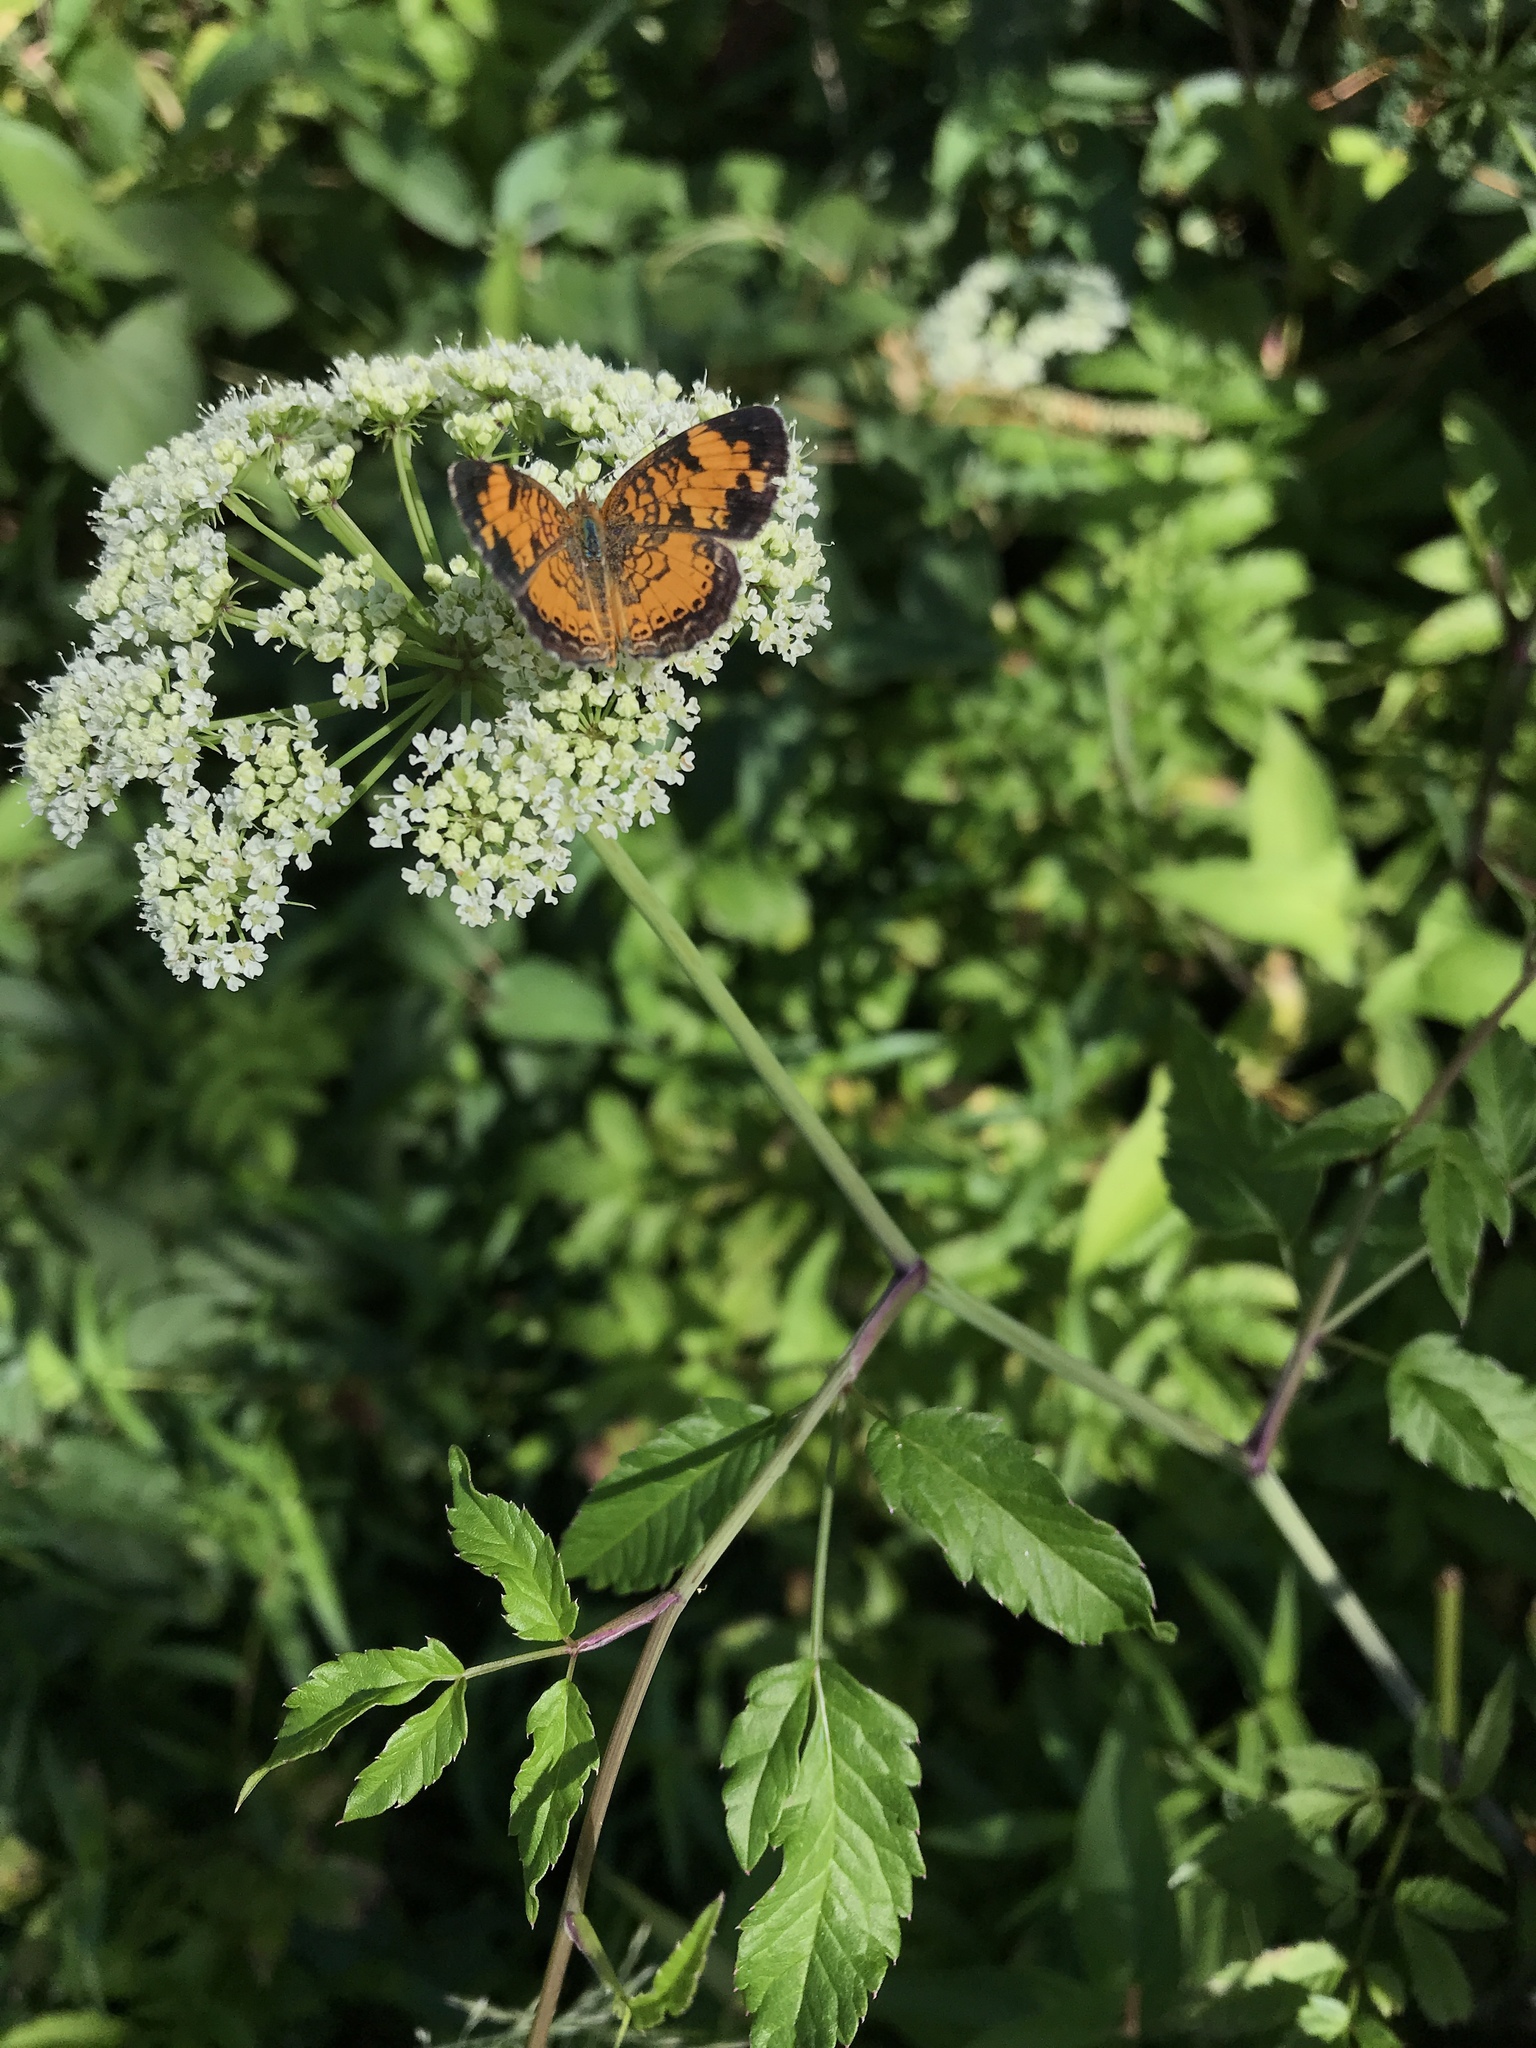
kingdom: Animalia
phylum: Arthropoda
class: Insecta
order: Lepidoptera
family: Nymphalidae
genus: Phyciodes
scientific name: Phyciodes tharos
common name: Pearl crescent
